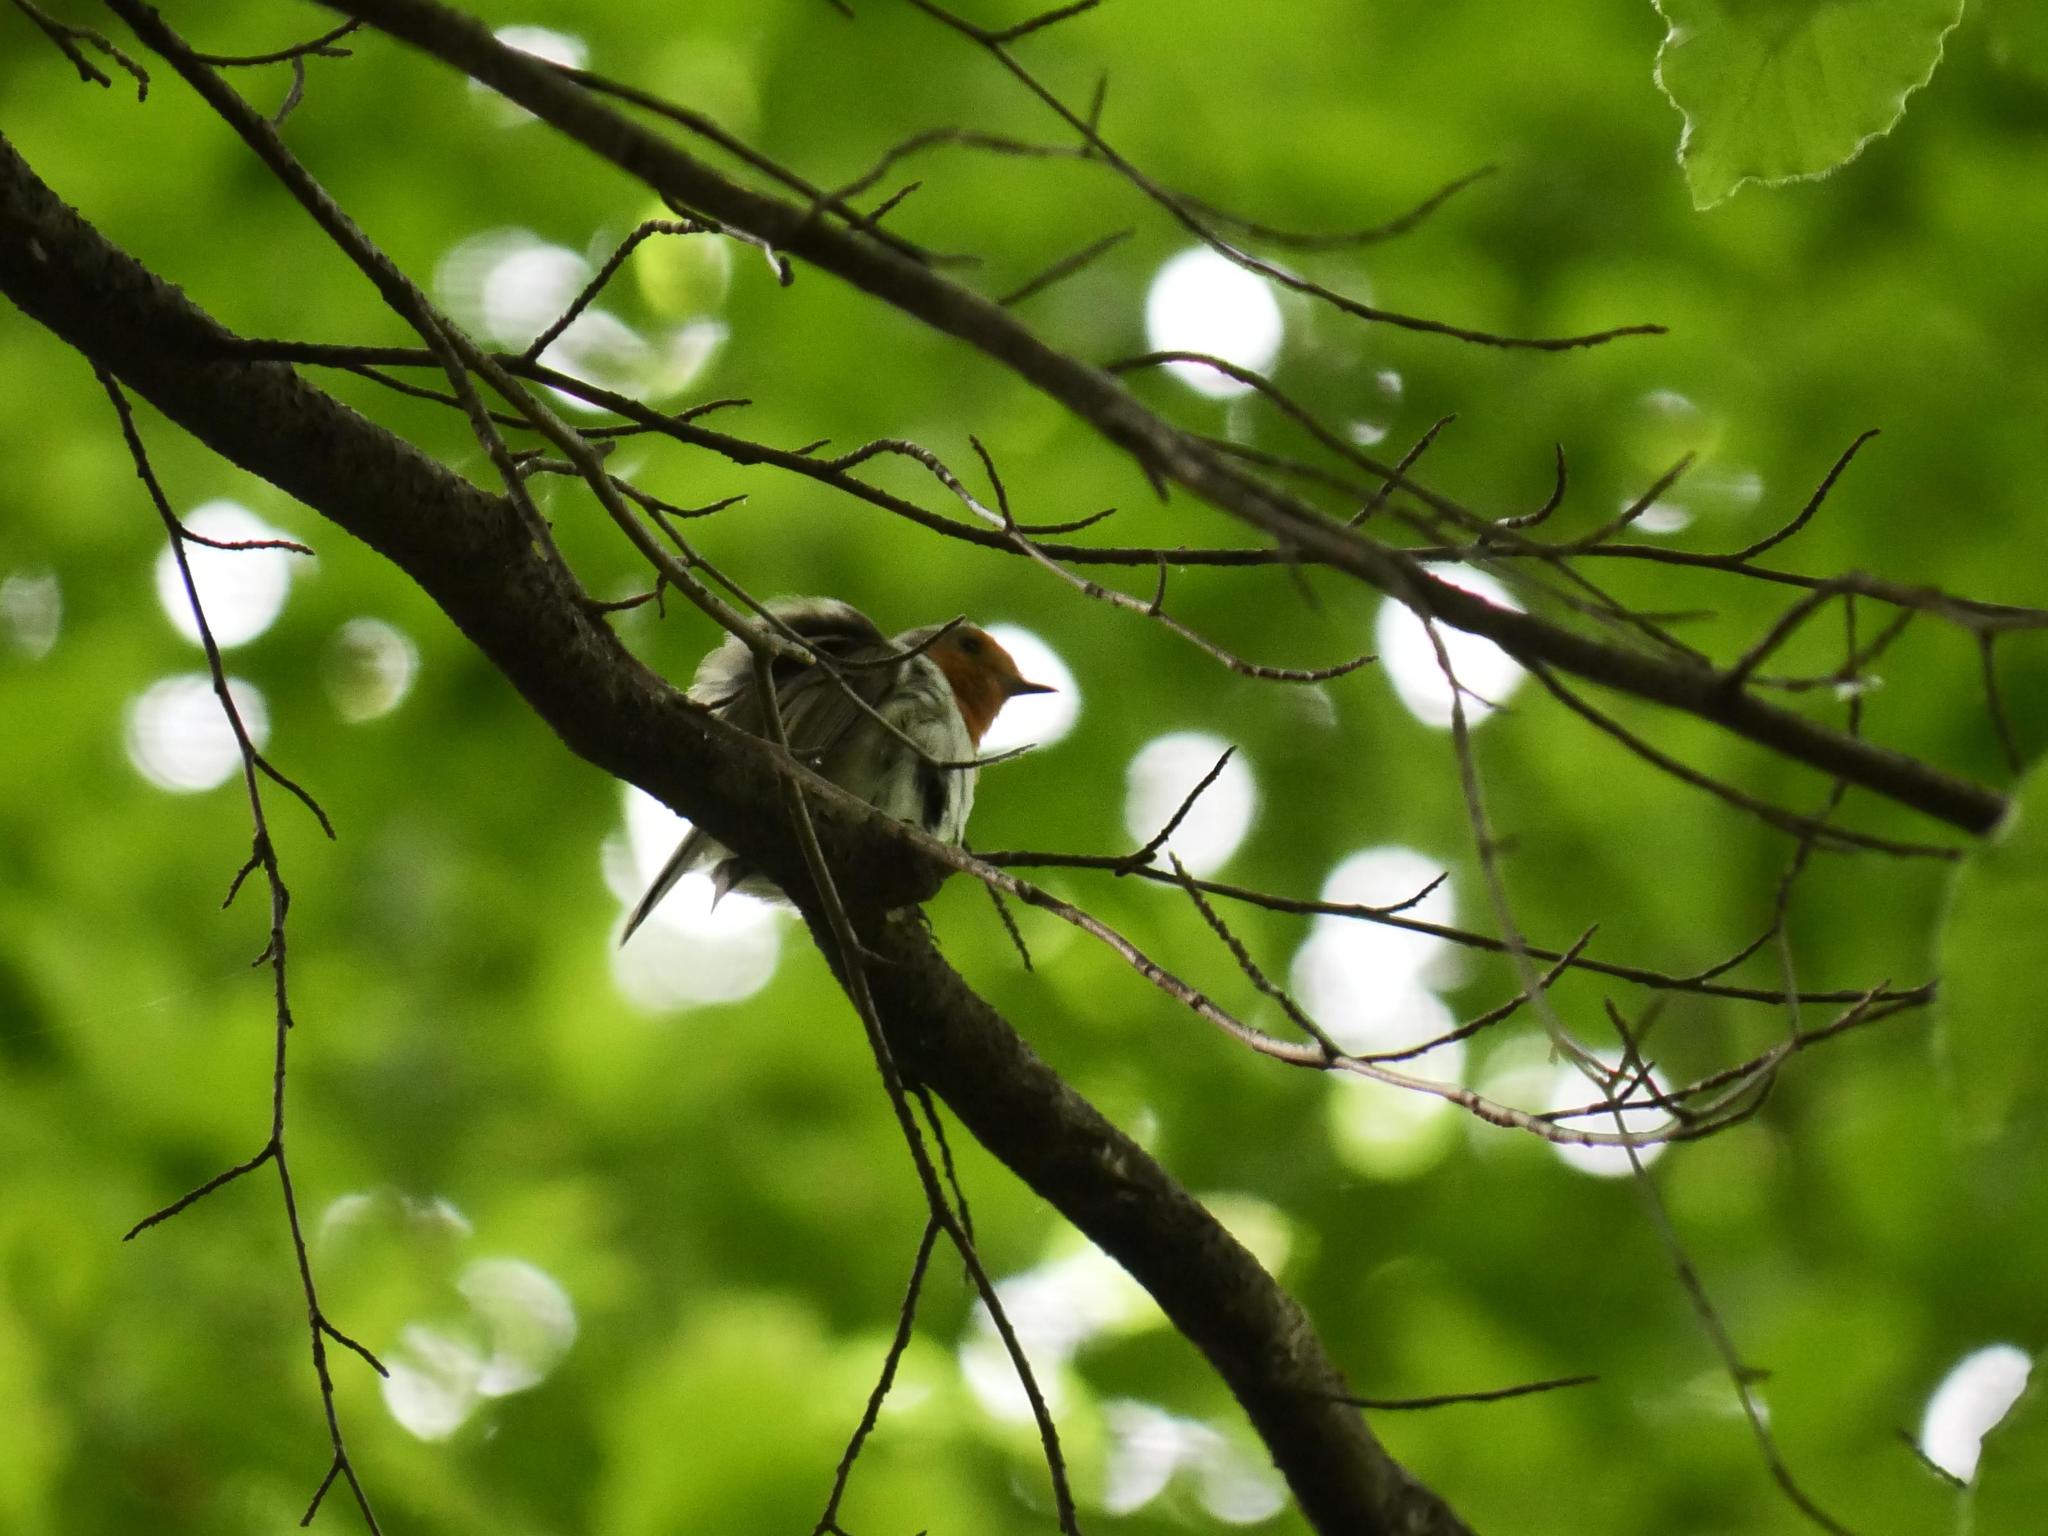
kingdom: Animalia
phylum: Chordata
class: Aves
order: Passeriformes
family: Muscicapidae
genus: Erithacus
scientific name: Erithacus rubecula
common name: European robin
